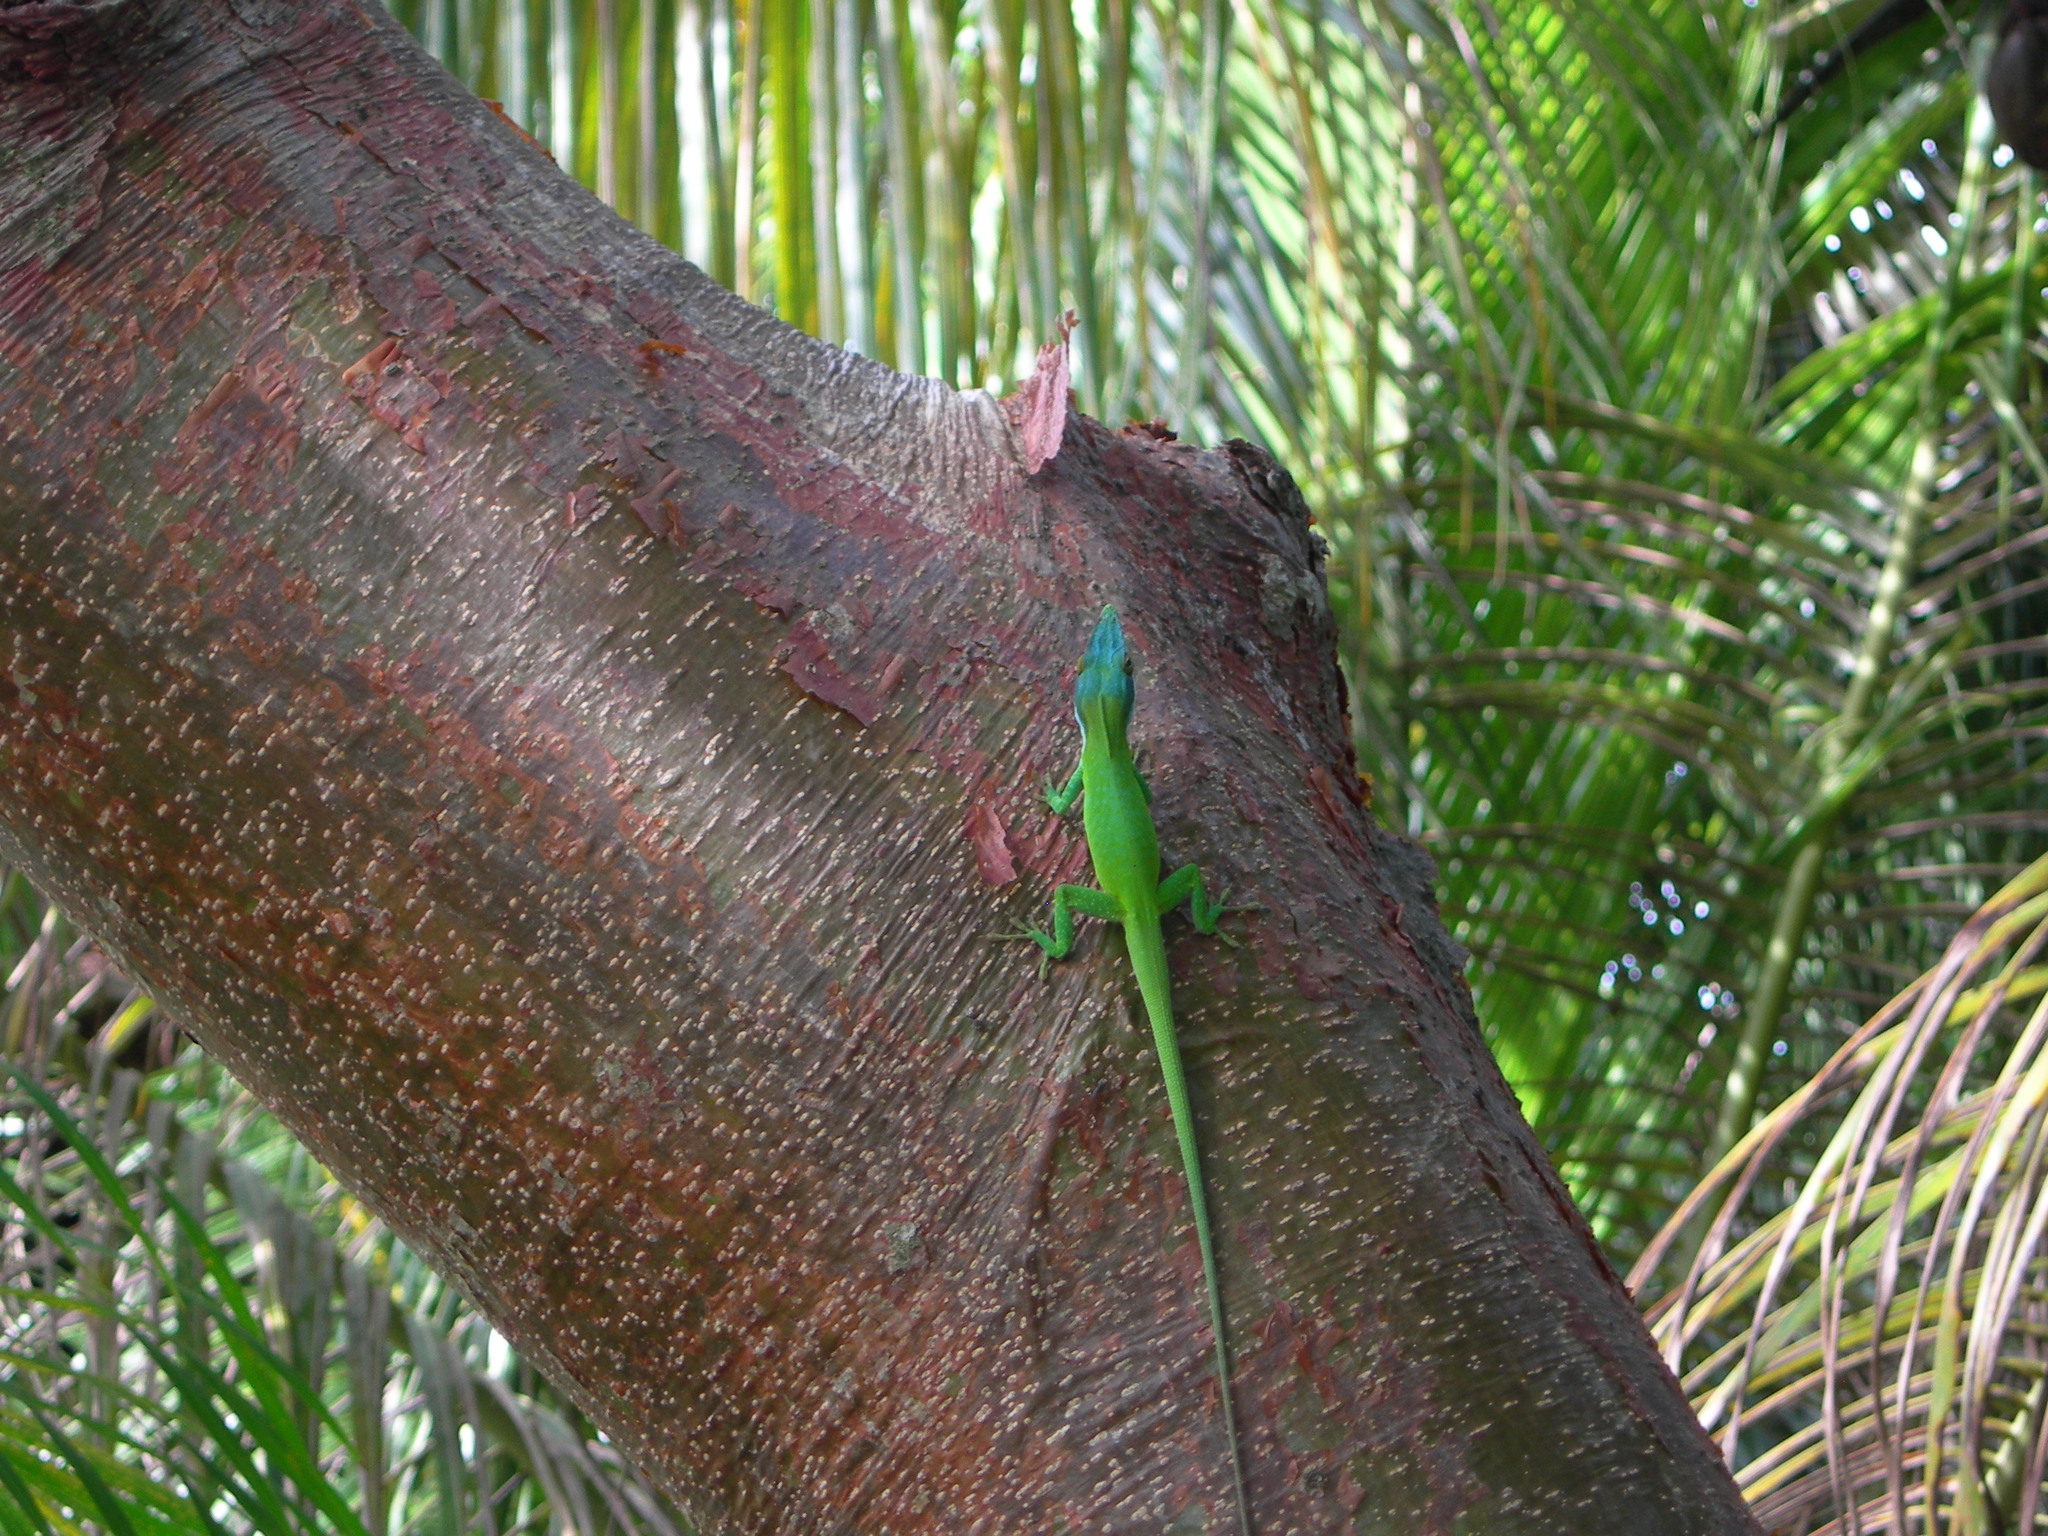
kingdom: Animalia
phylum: Chordata
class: Squamata
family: Dactyloidae
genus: Anolis
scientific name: Anolis allisoni
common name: Allison's anole
